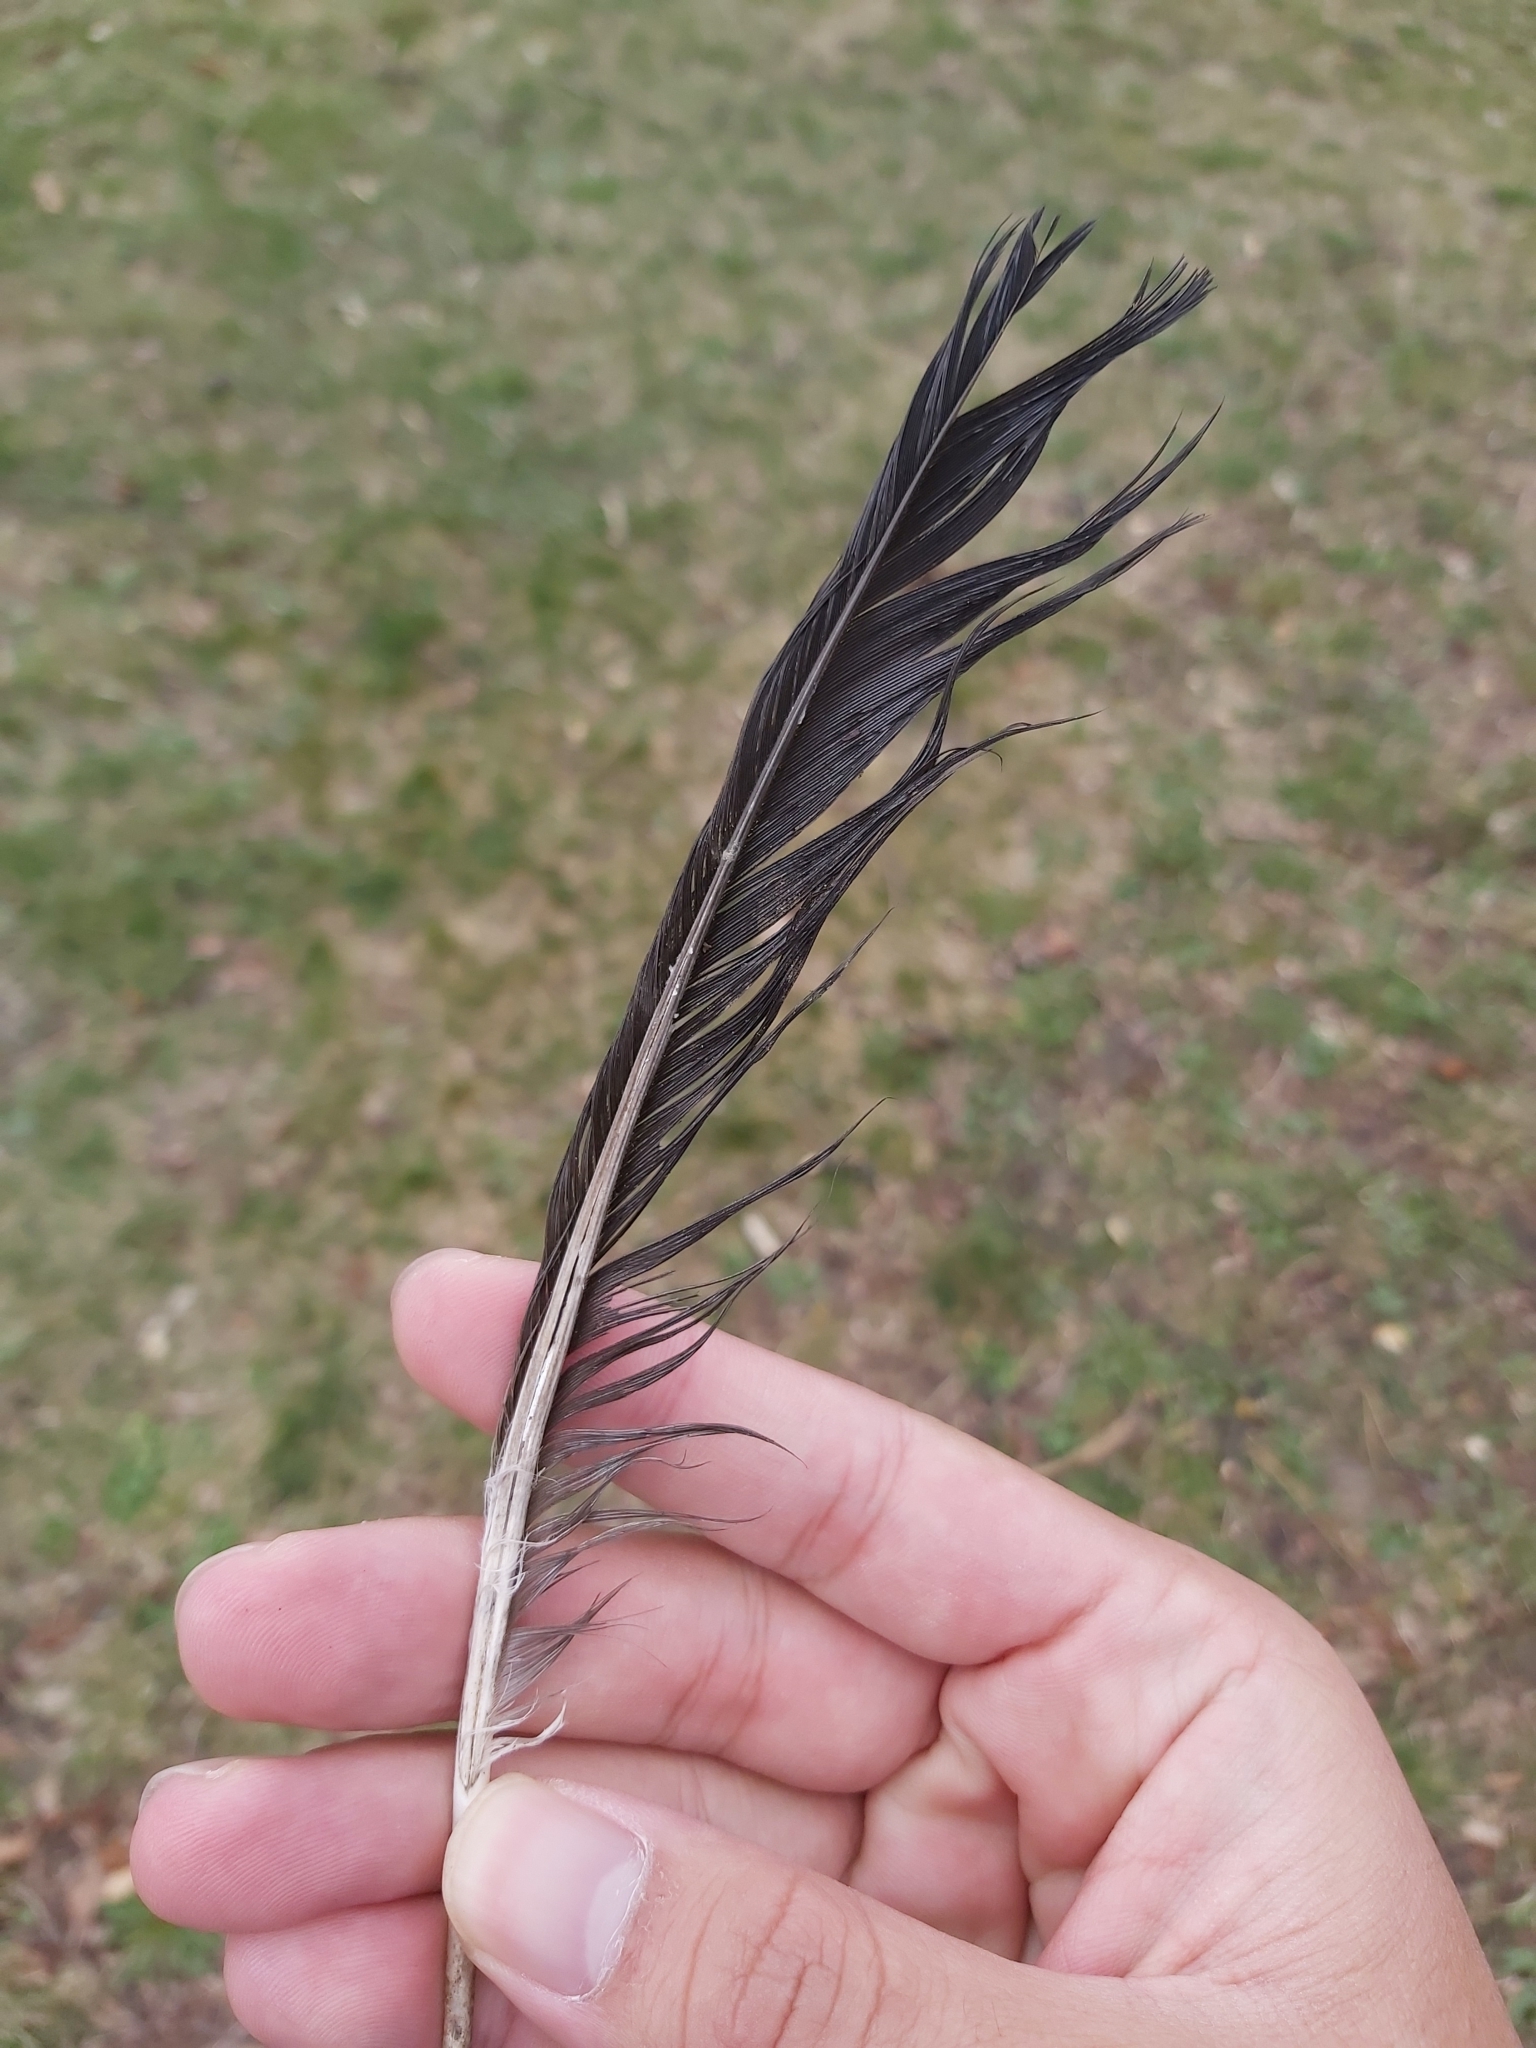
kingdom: Animalia
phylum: Chordata
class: Aves
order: Passeriformes
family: Corvidae
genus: Corvus
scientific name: Corvus cornix
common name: Hooded crow
